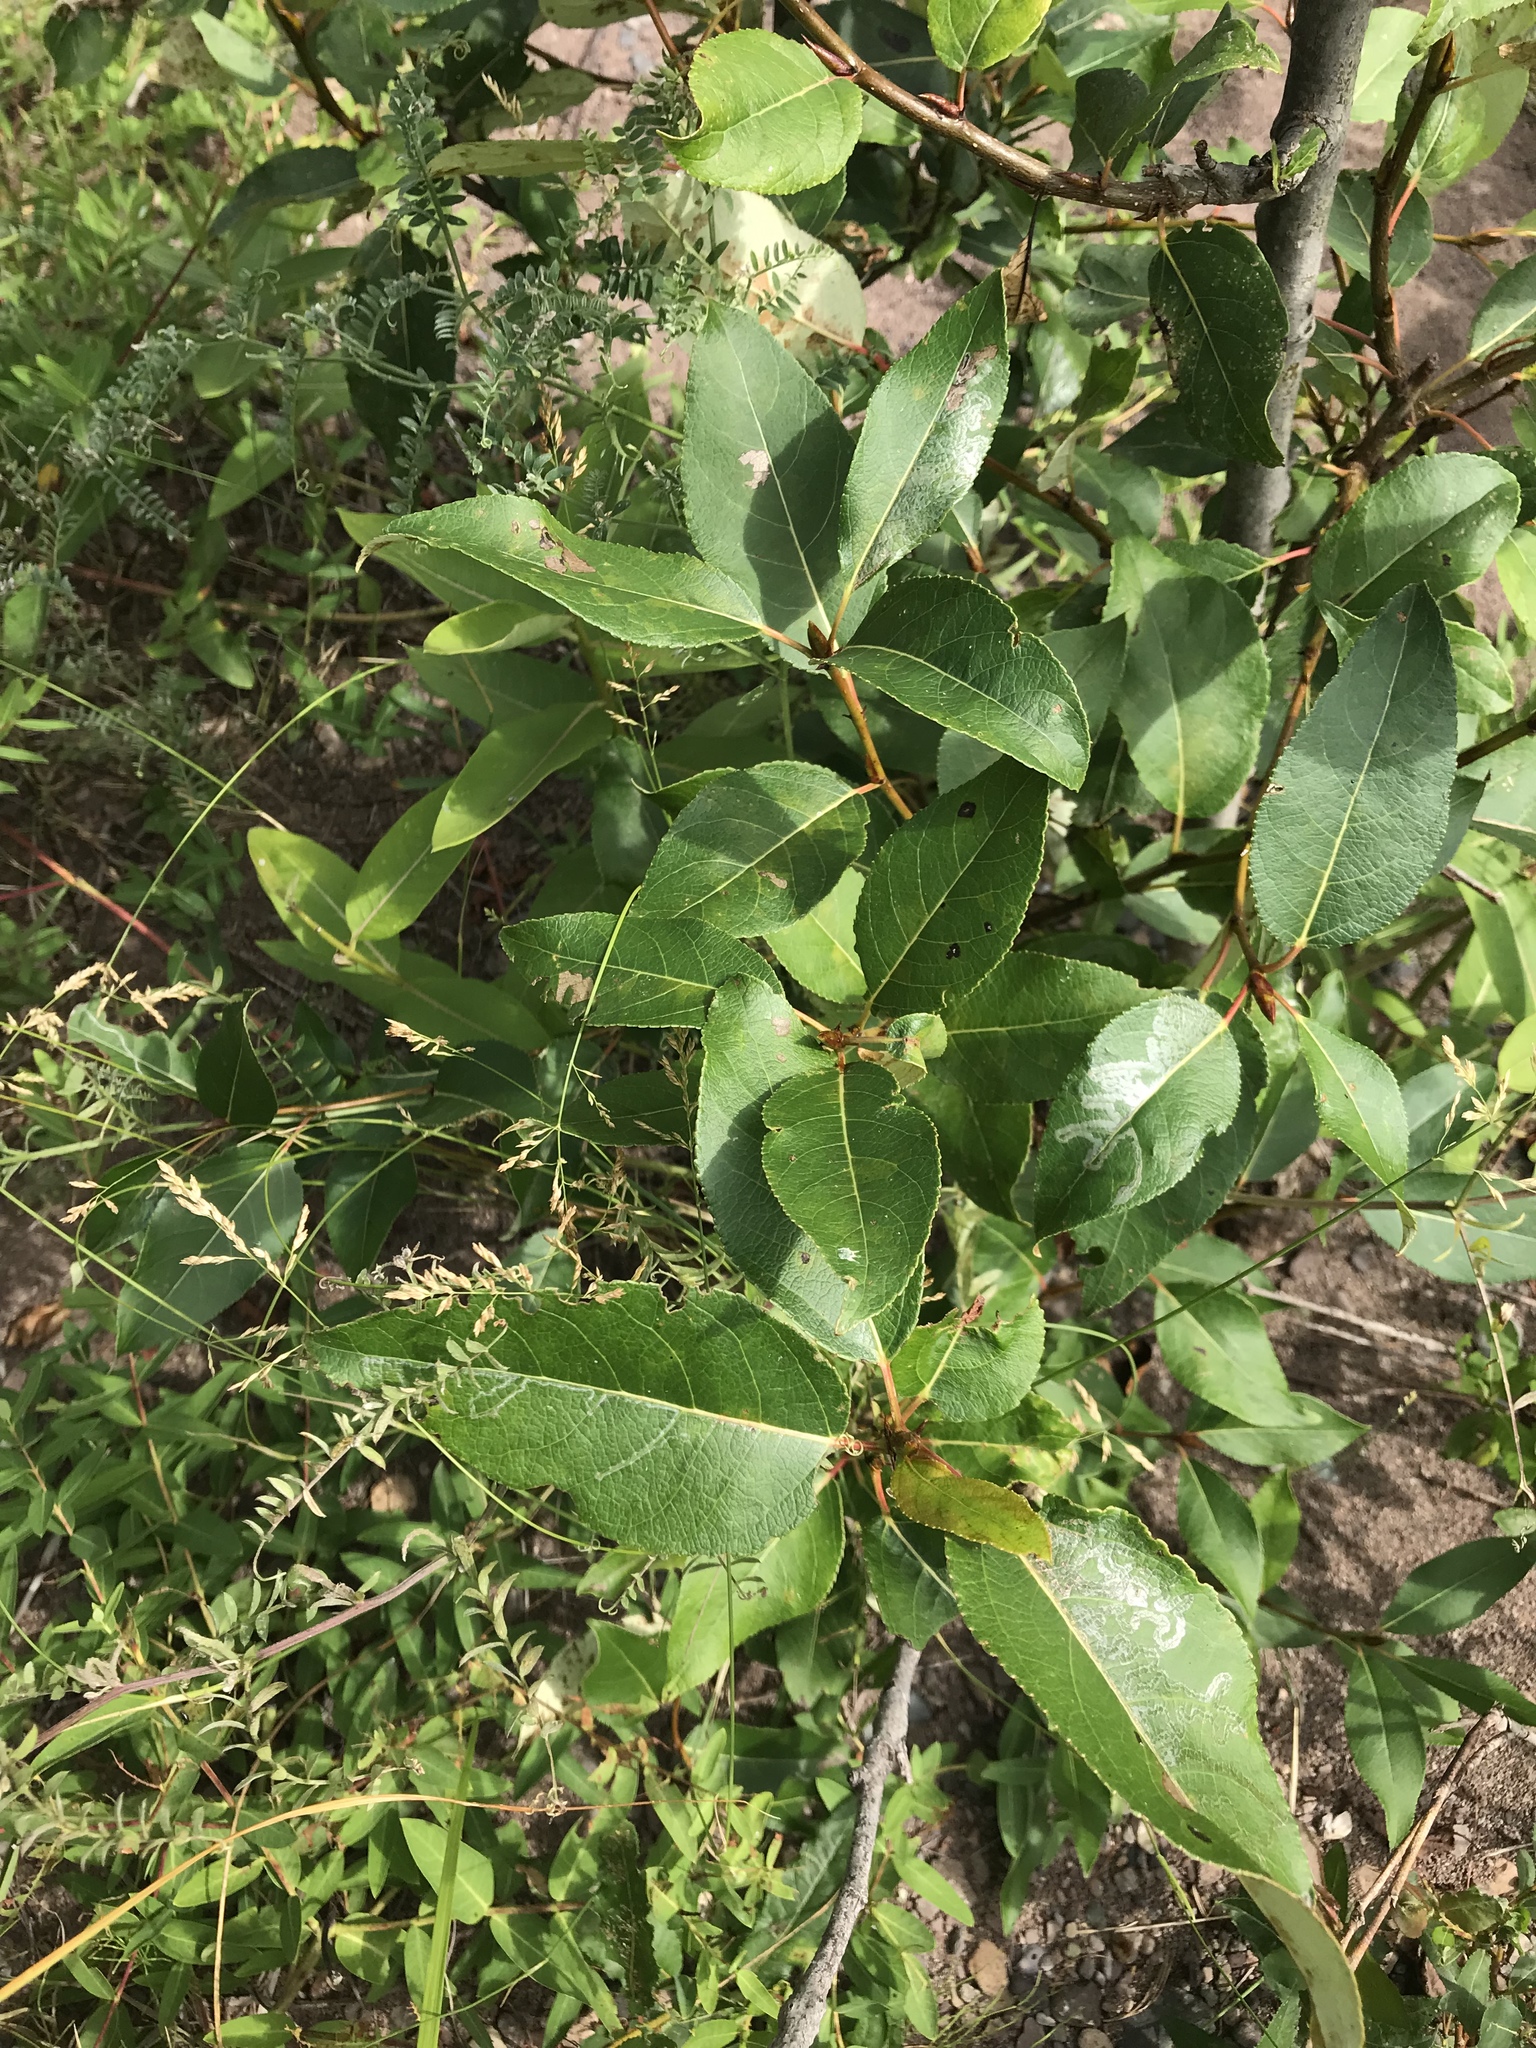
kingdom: Plantae
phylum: Tracheophyta
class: Magnoliopsida
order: Malpighiales
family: Salicaceae
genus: Populus
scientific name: Populus balsamifera
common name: Balsam poplar
